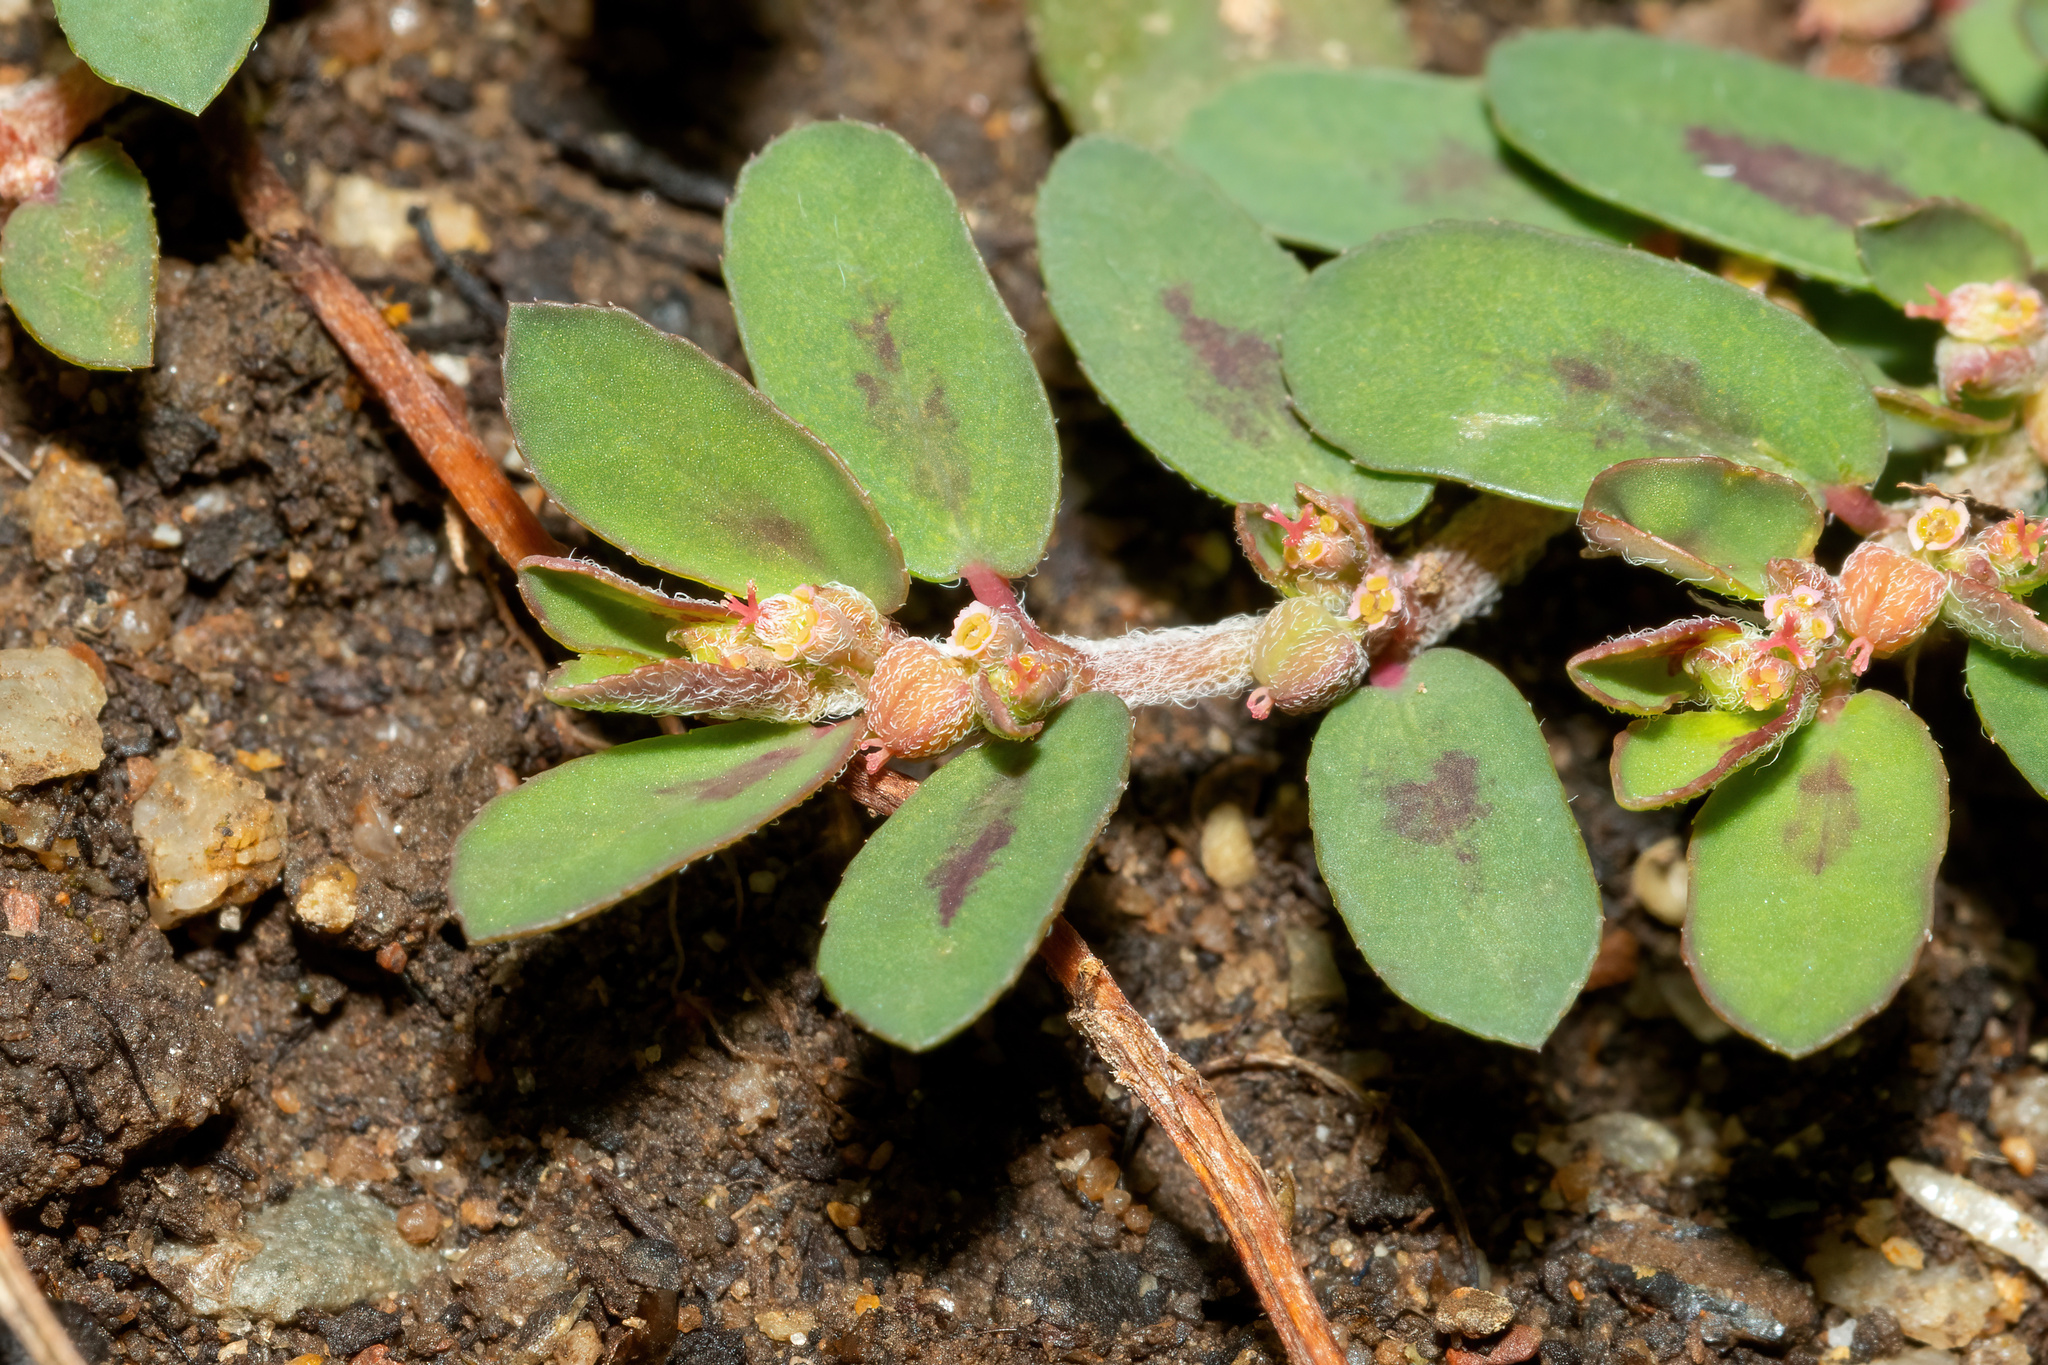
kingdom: Plantae
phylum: Tracheophyta
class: Magnoliopsida
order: Malpighiales
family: Euphorbiaceae
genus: Euphorbia
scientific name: Euphorbia maculata
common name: Spotted spurge
